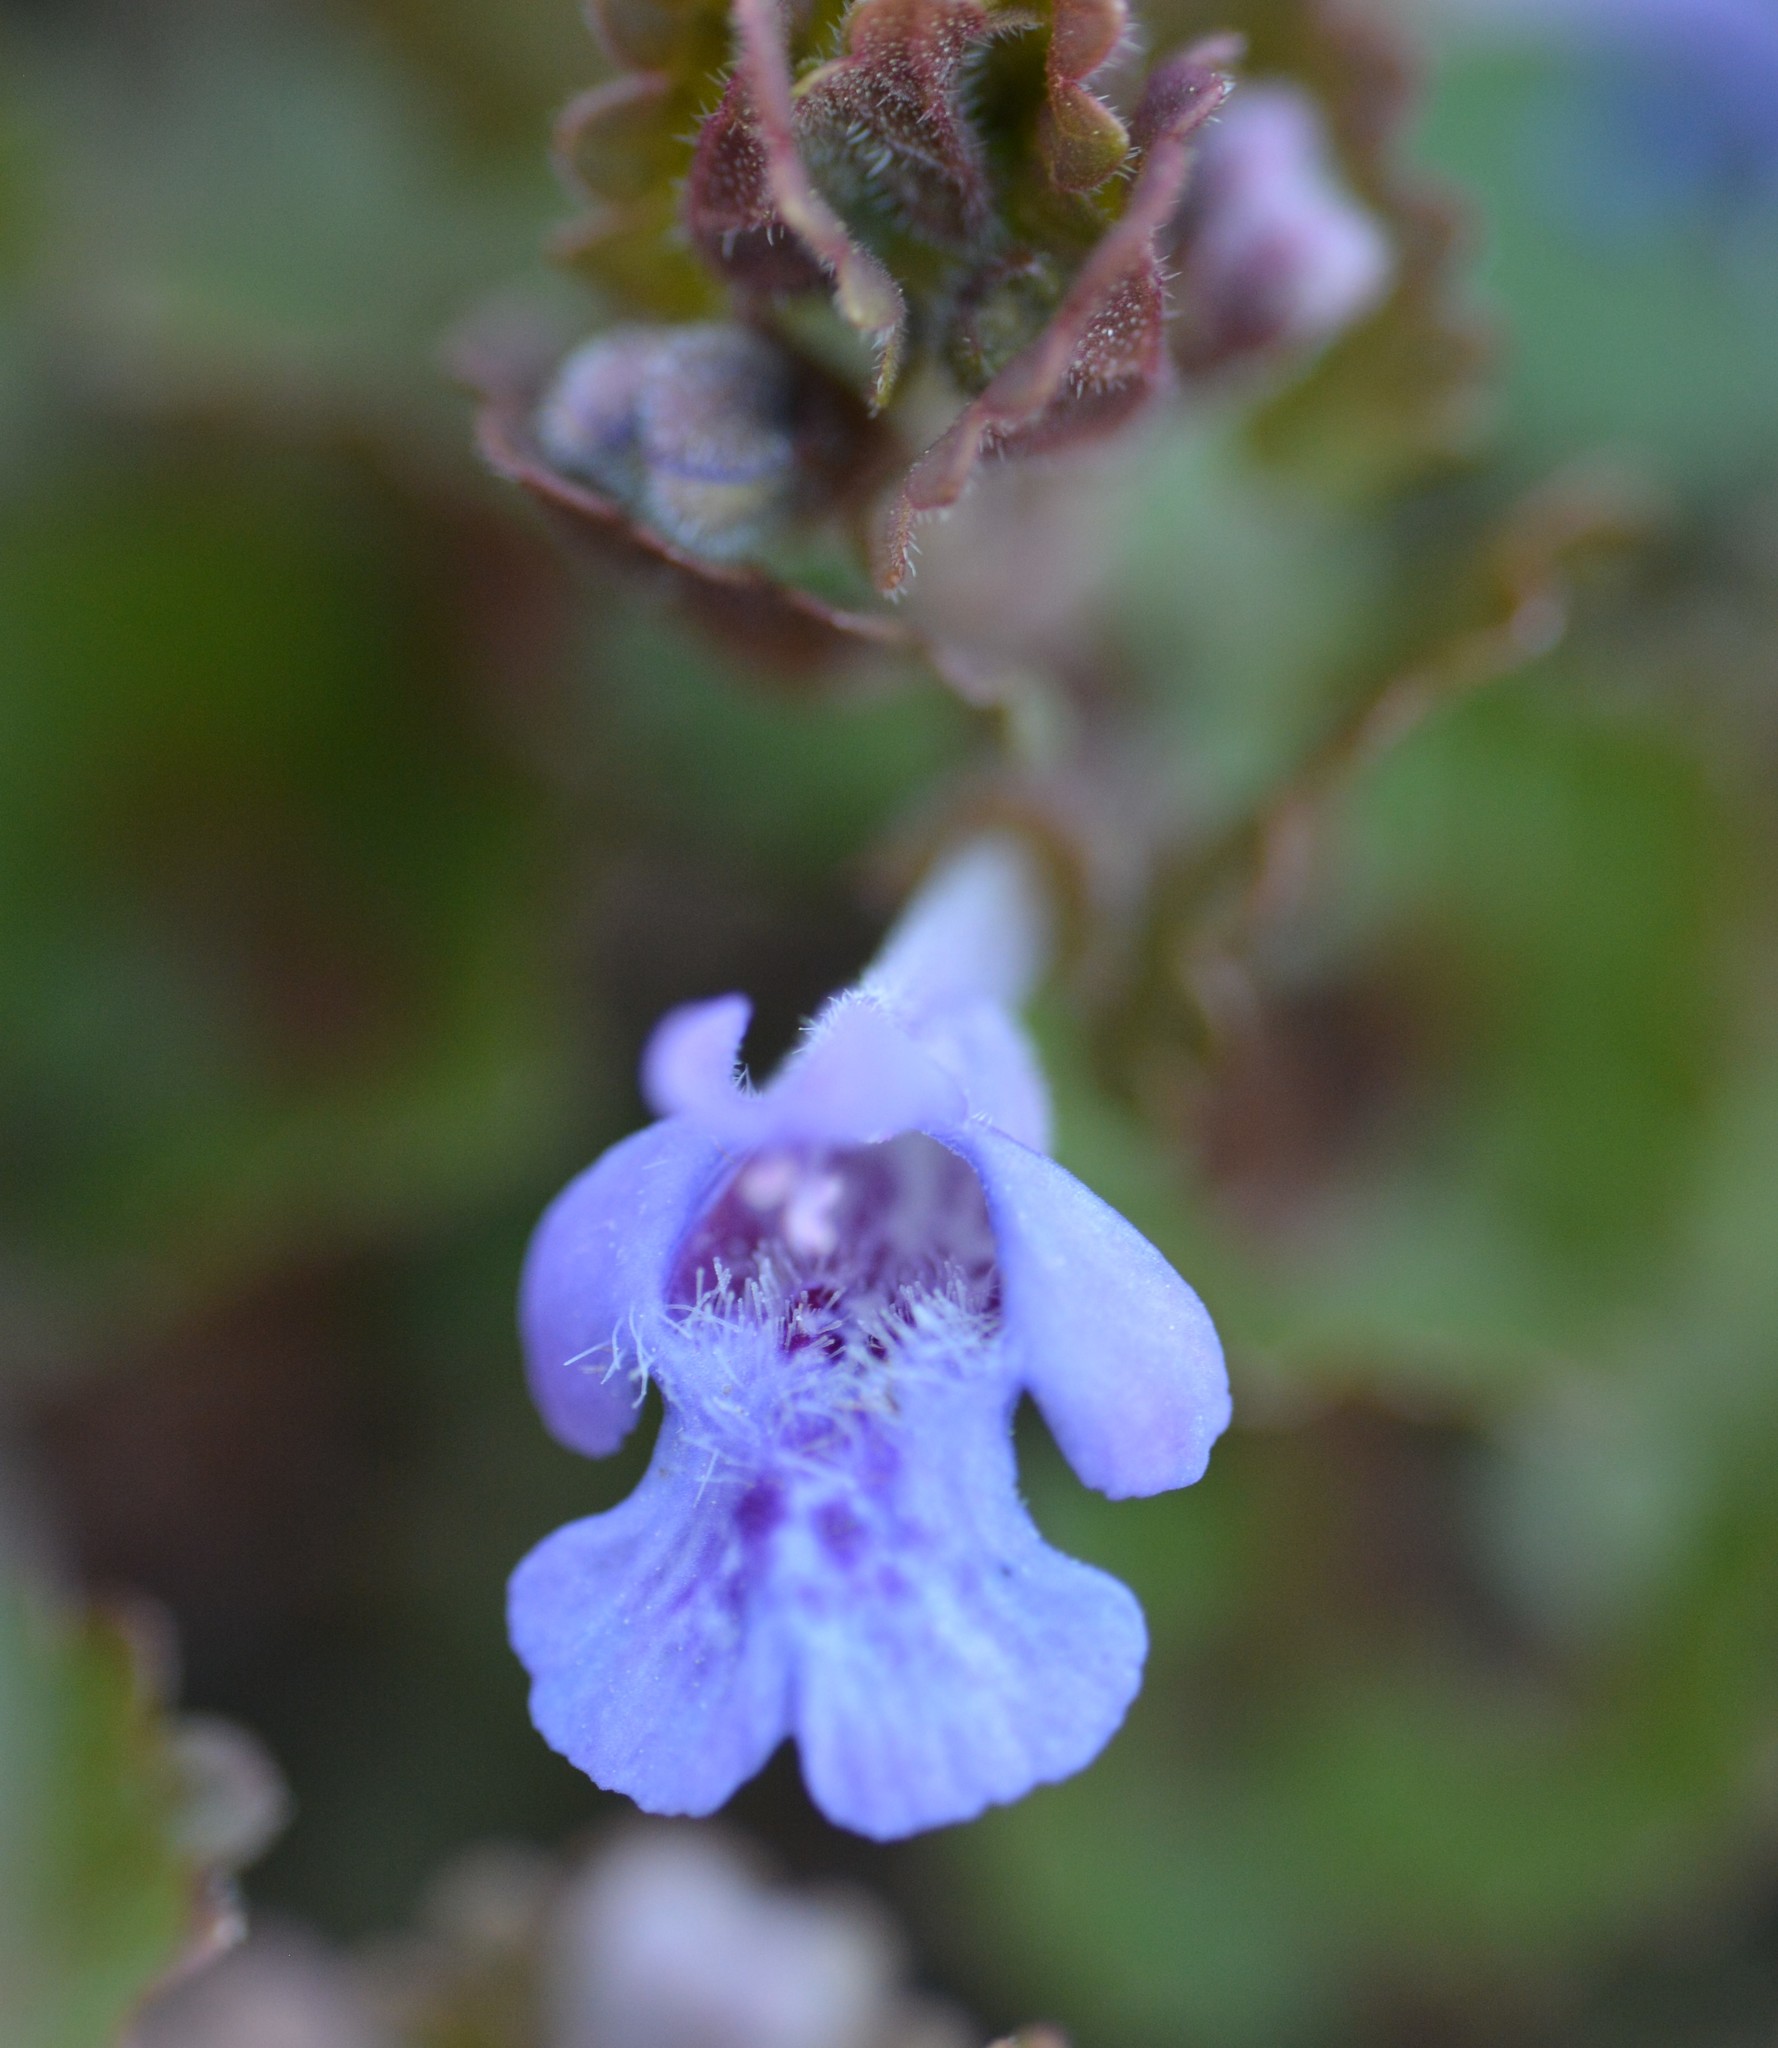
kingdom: Plantae
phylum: Tracheophyta
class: Magnoliopsida
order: Lamiales
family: Lamiaceae
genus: Glechoma
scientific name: Glechoma hederacea
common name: Ground ivy
